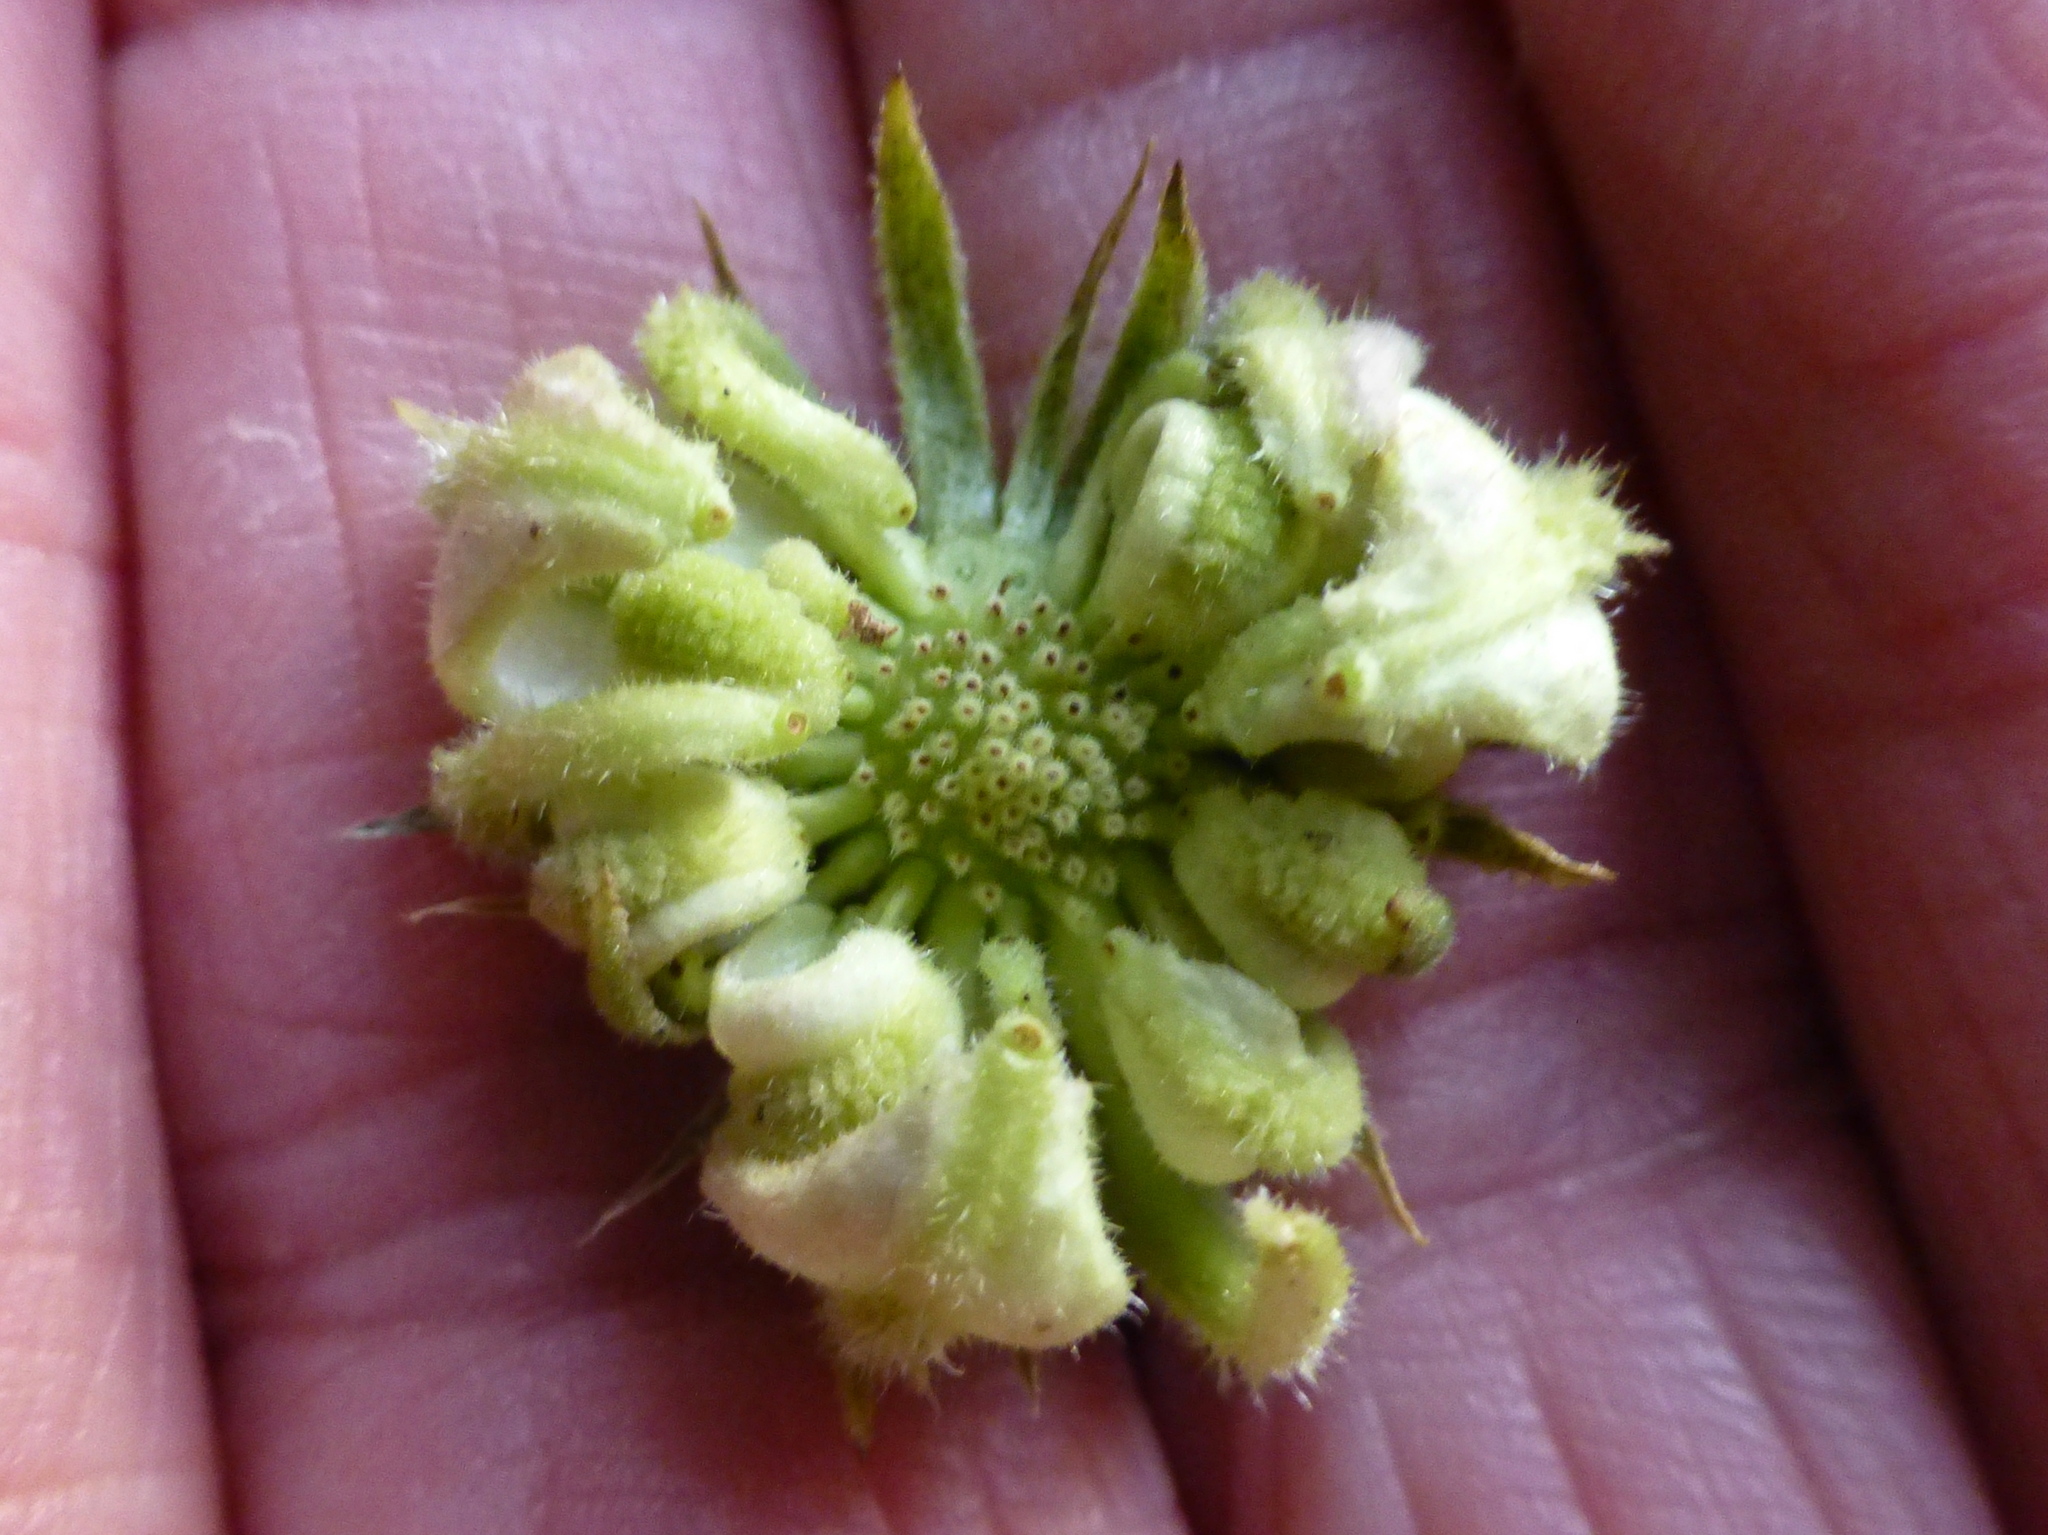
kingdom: Plantae
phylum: Tracheophyta
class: Magnoliopsida
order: Asterales
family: Asteraceae
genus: Calendula
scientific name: Calendula officinalis
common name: Pot marigold
